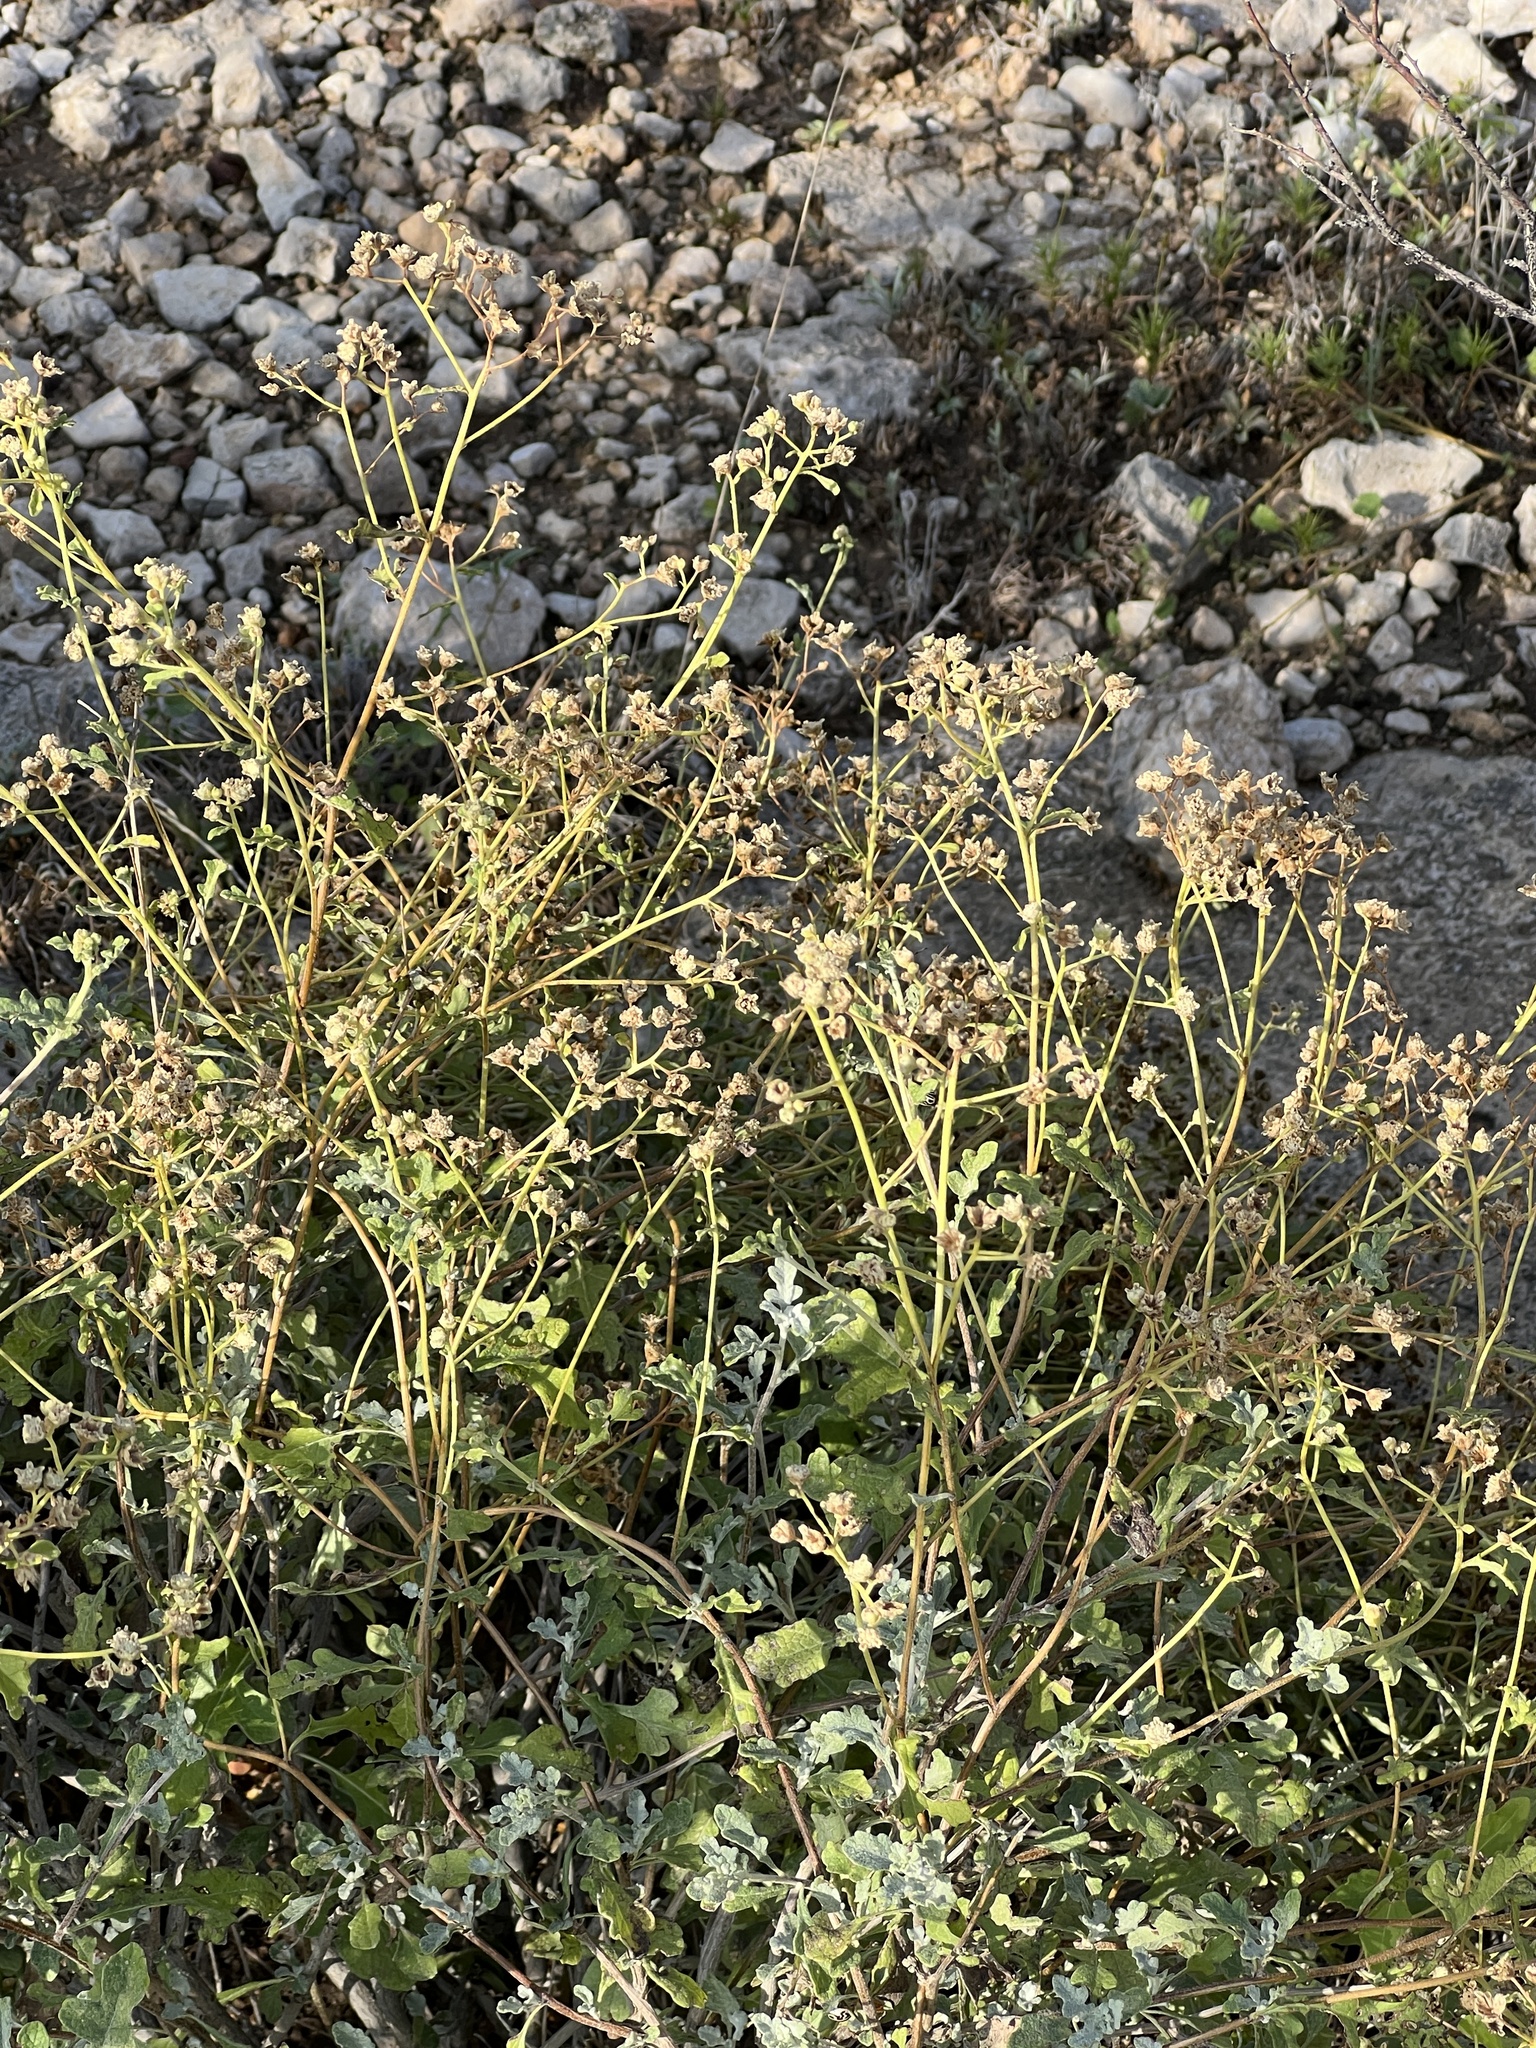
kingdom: Plantae
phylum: Tracheophyta
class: Magnoliopsida
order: Asterales
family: Asteraceae
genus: Parthenium
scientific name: Parthenium incanum
